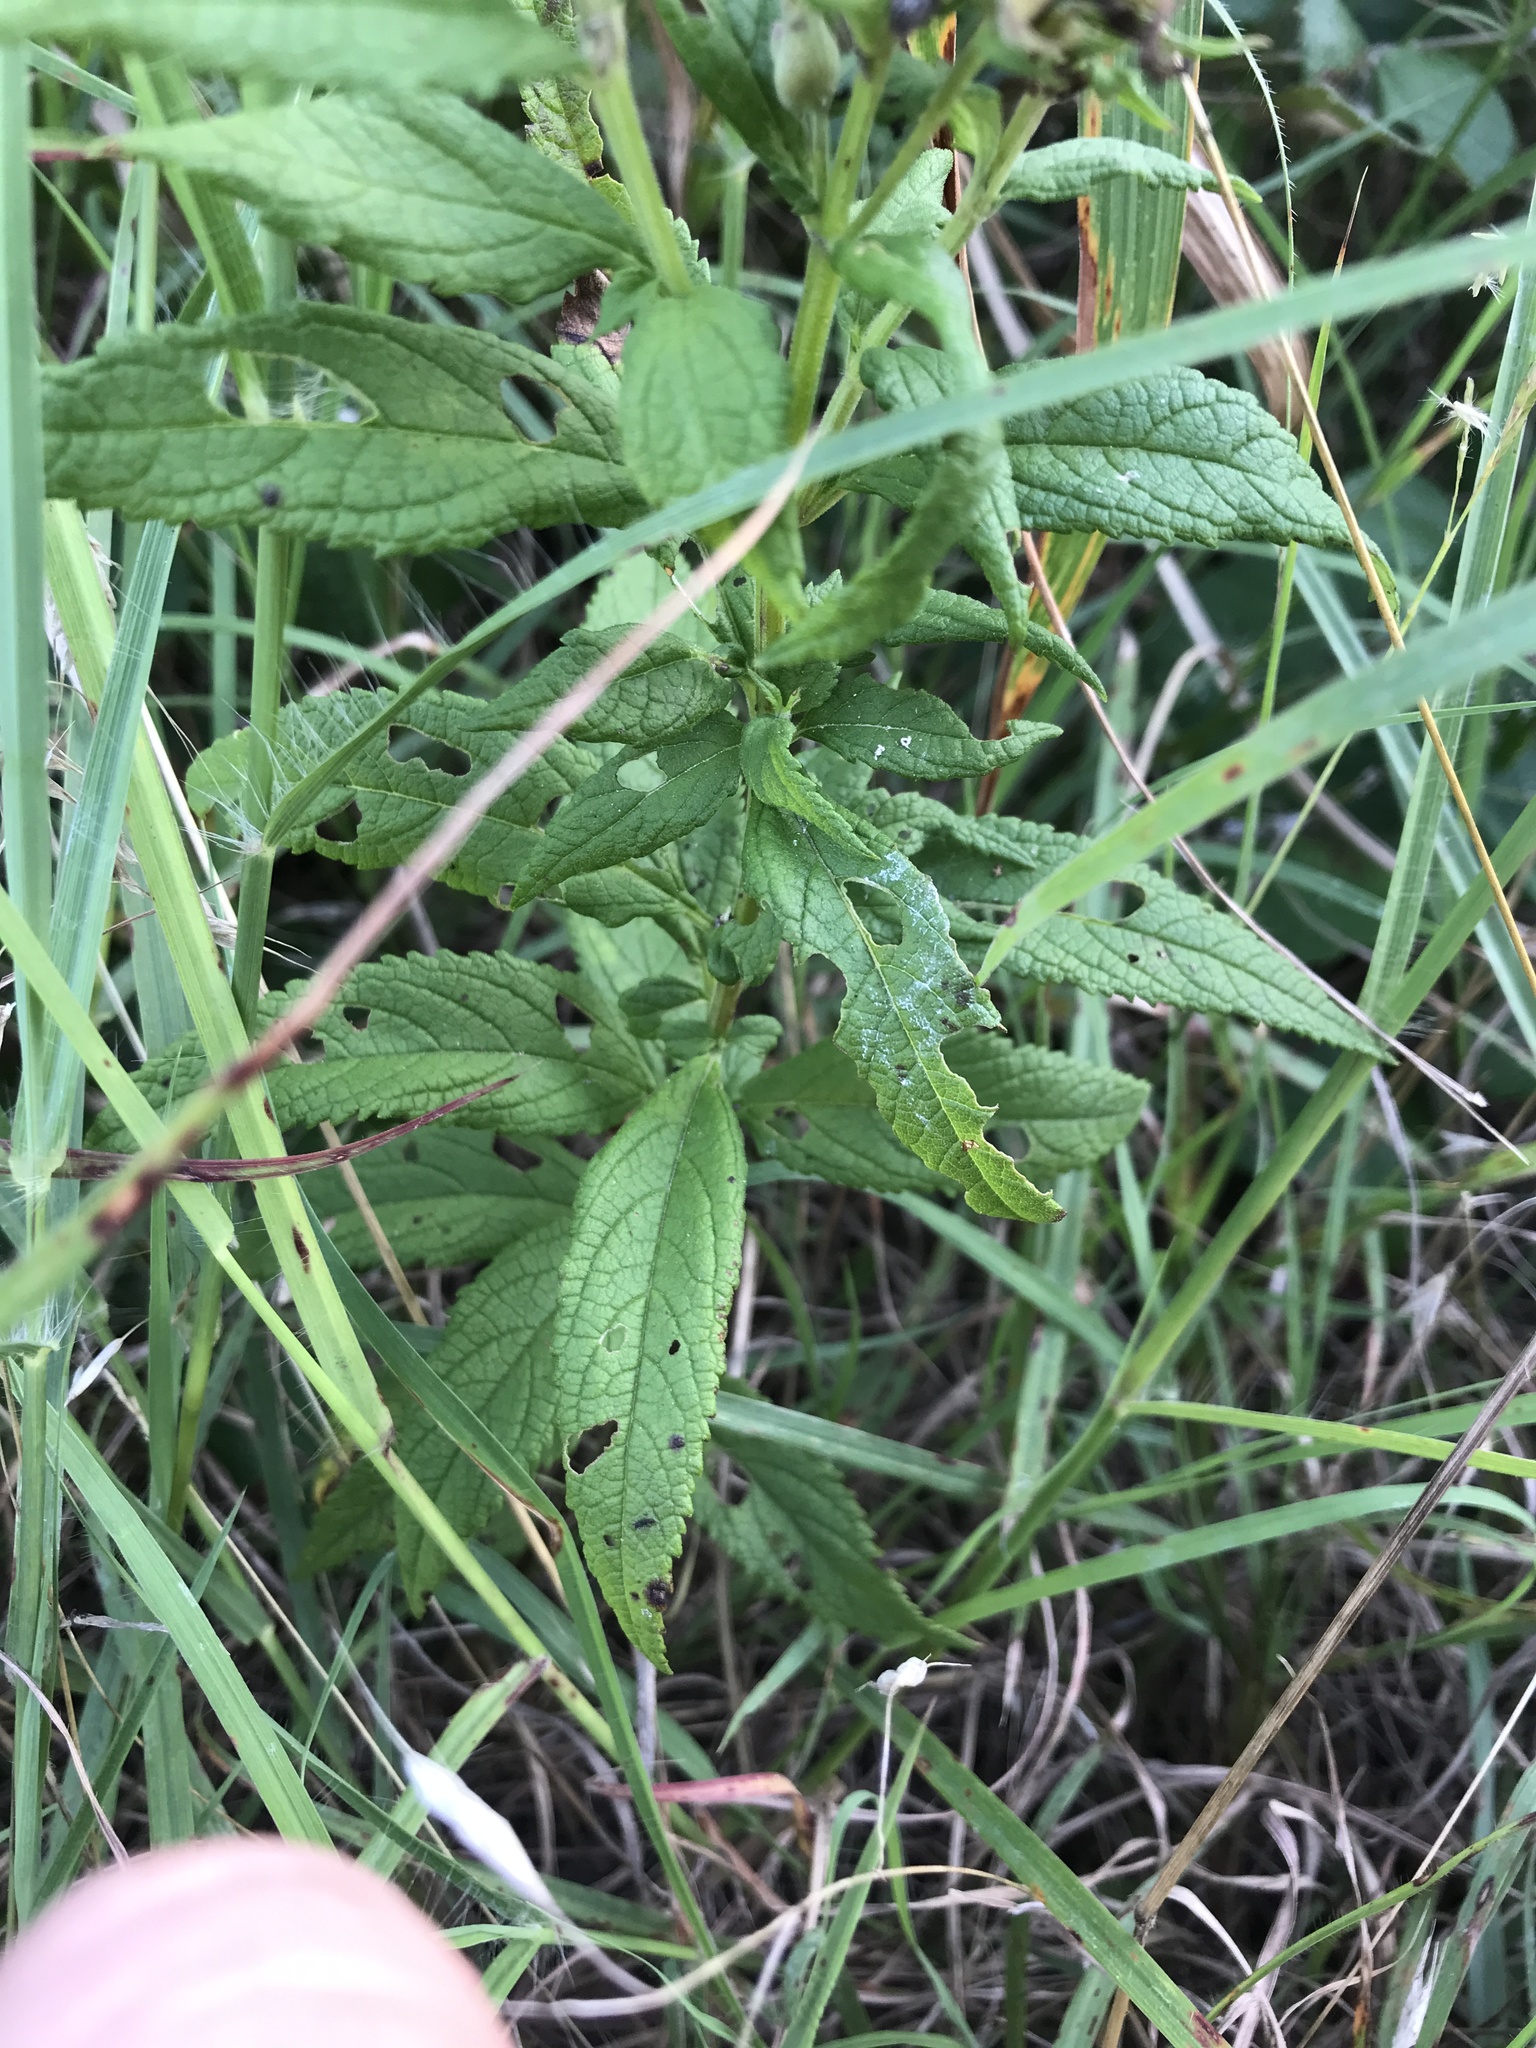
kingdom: Plantae
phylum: Tracheophyta
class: Magnoliopsida
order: Lamiales
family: Lamiaceae
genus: Teucrium
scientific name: Teucrium canadense
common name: American germander
